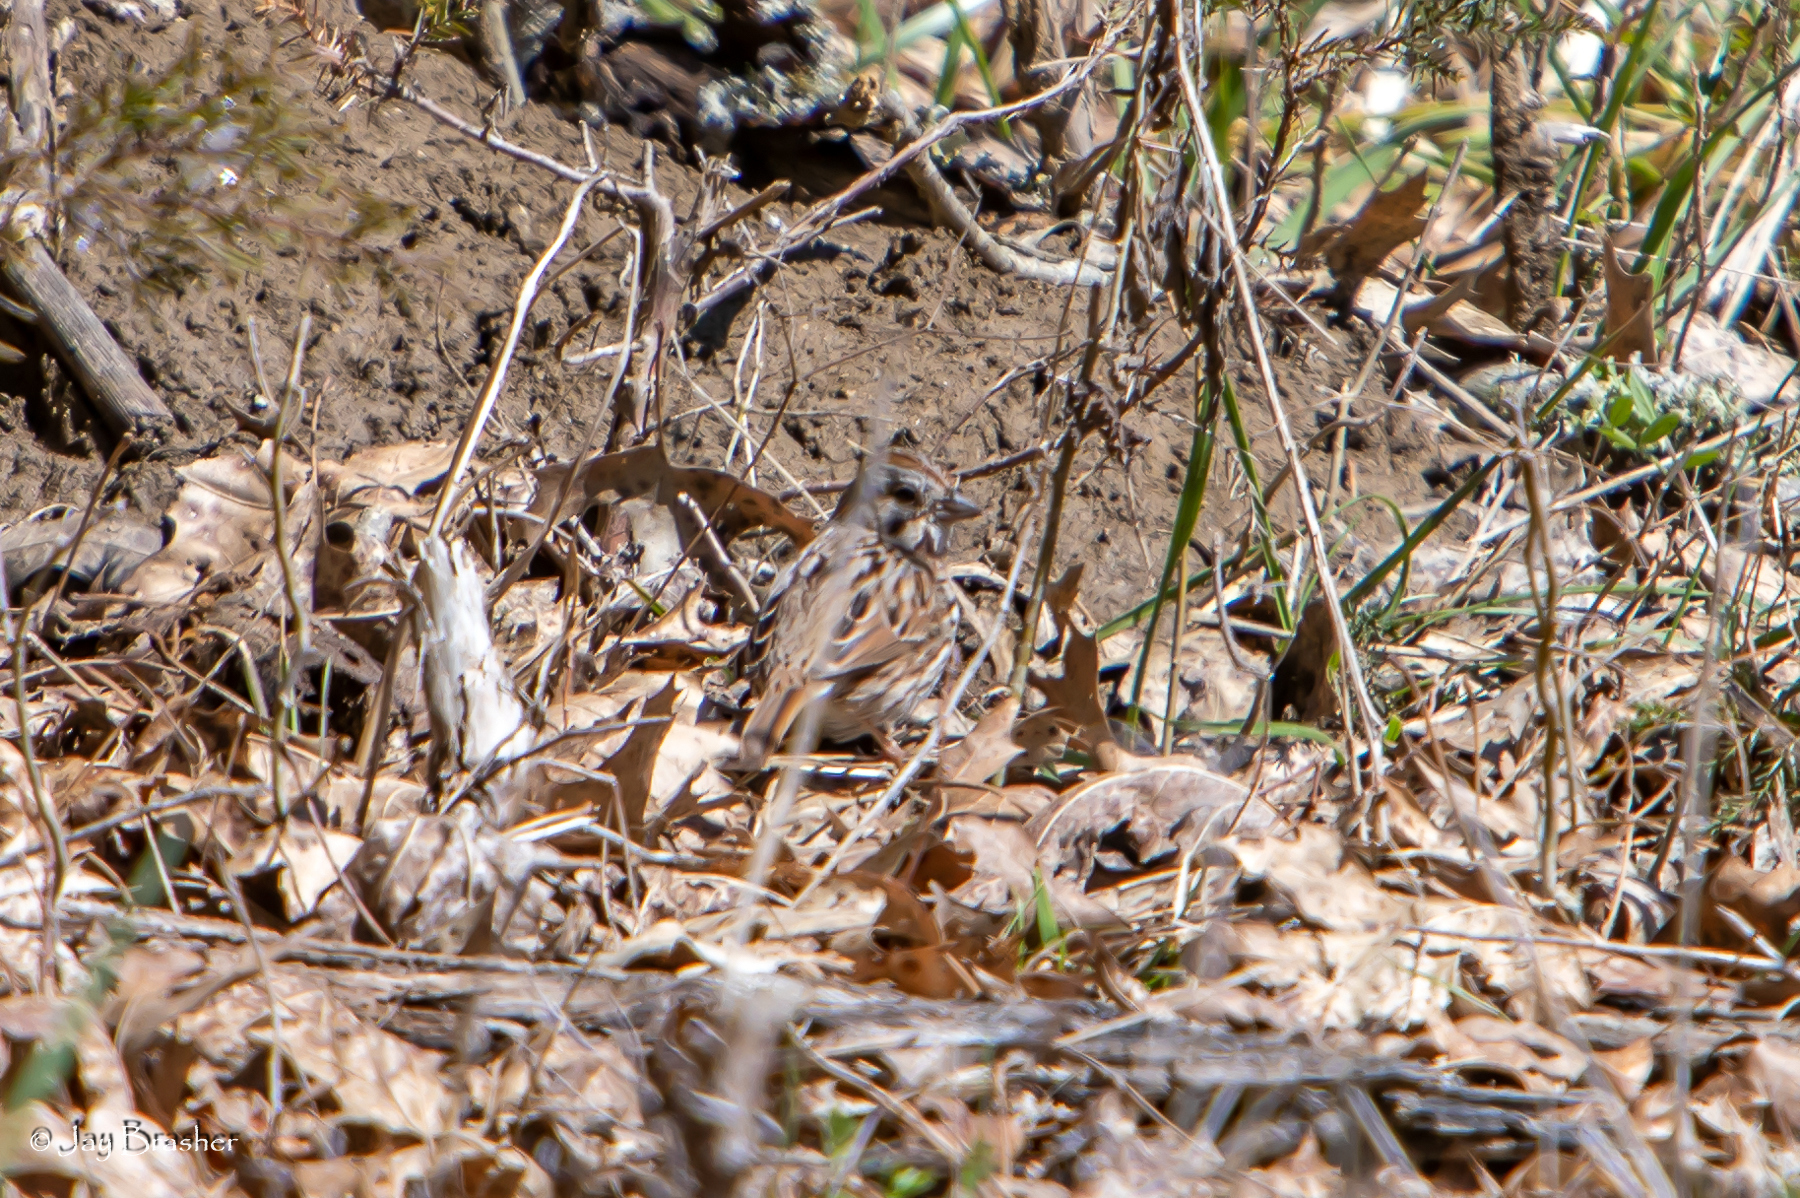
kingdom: Animalia
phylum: Chordata
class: Aves
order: Passeriformes
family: Passerellidae
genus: Melospiza
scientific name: Melospiza melodia
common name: Song sparrow
